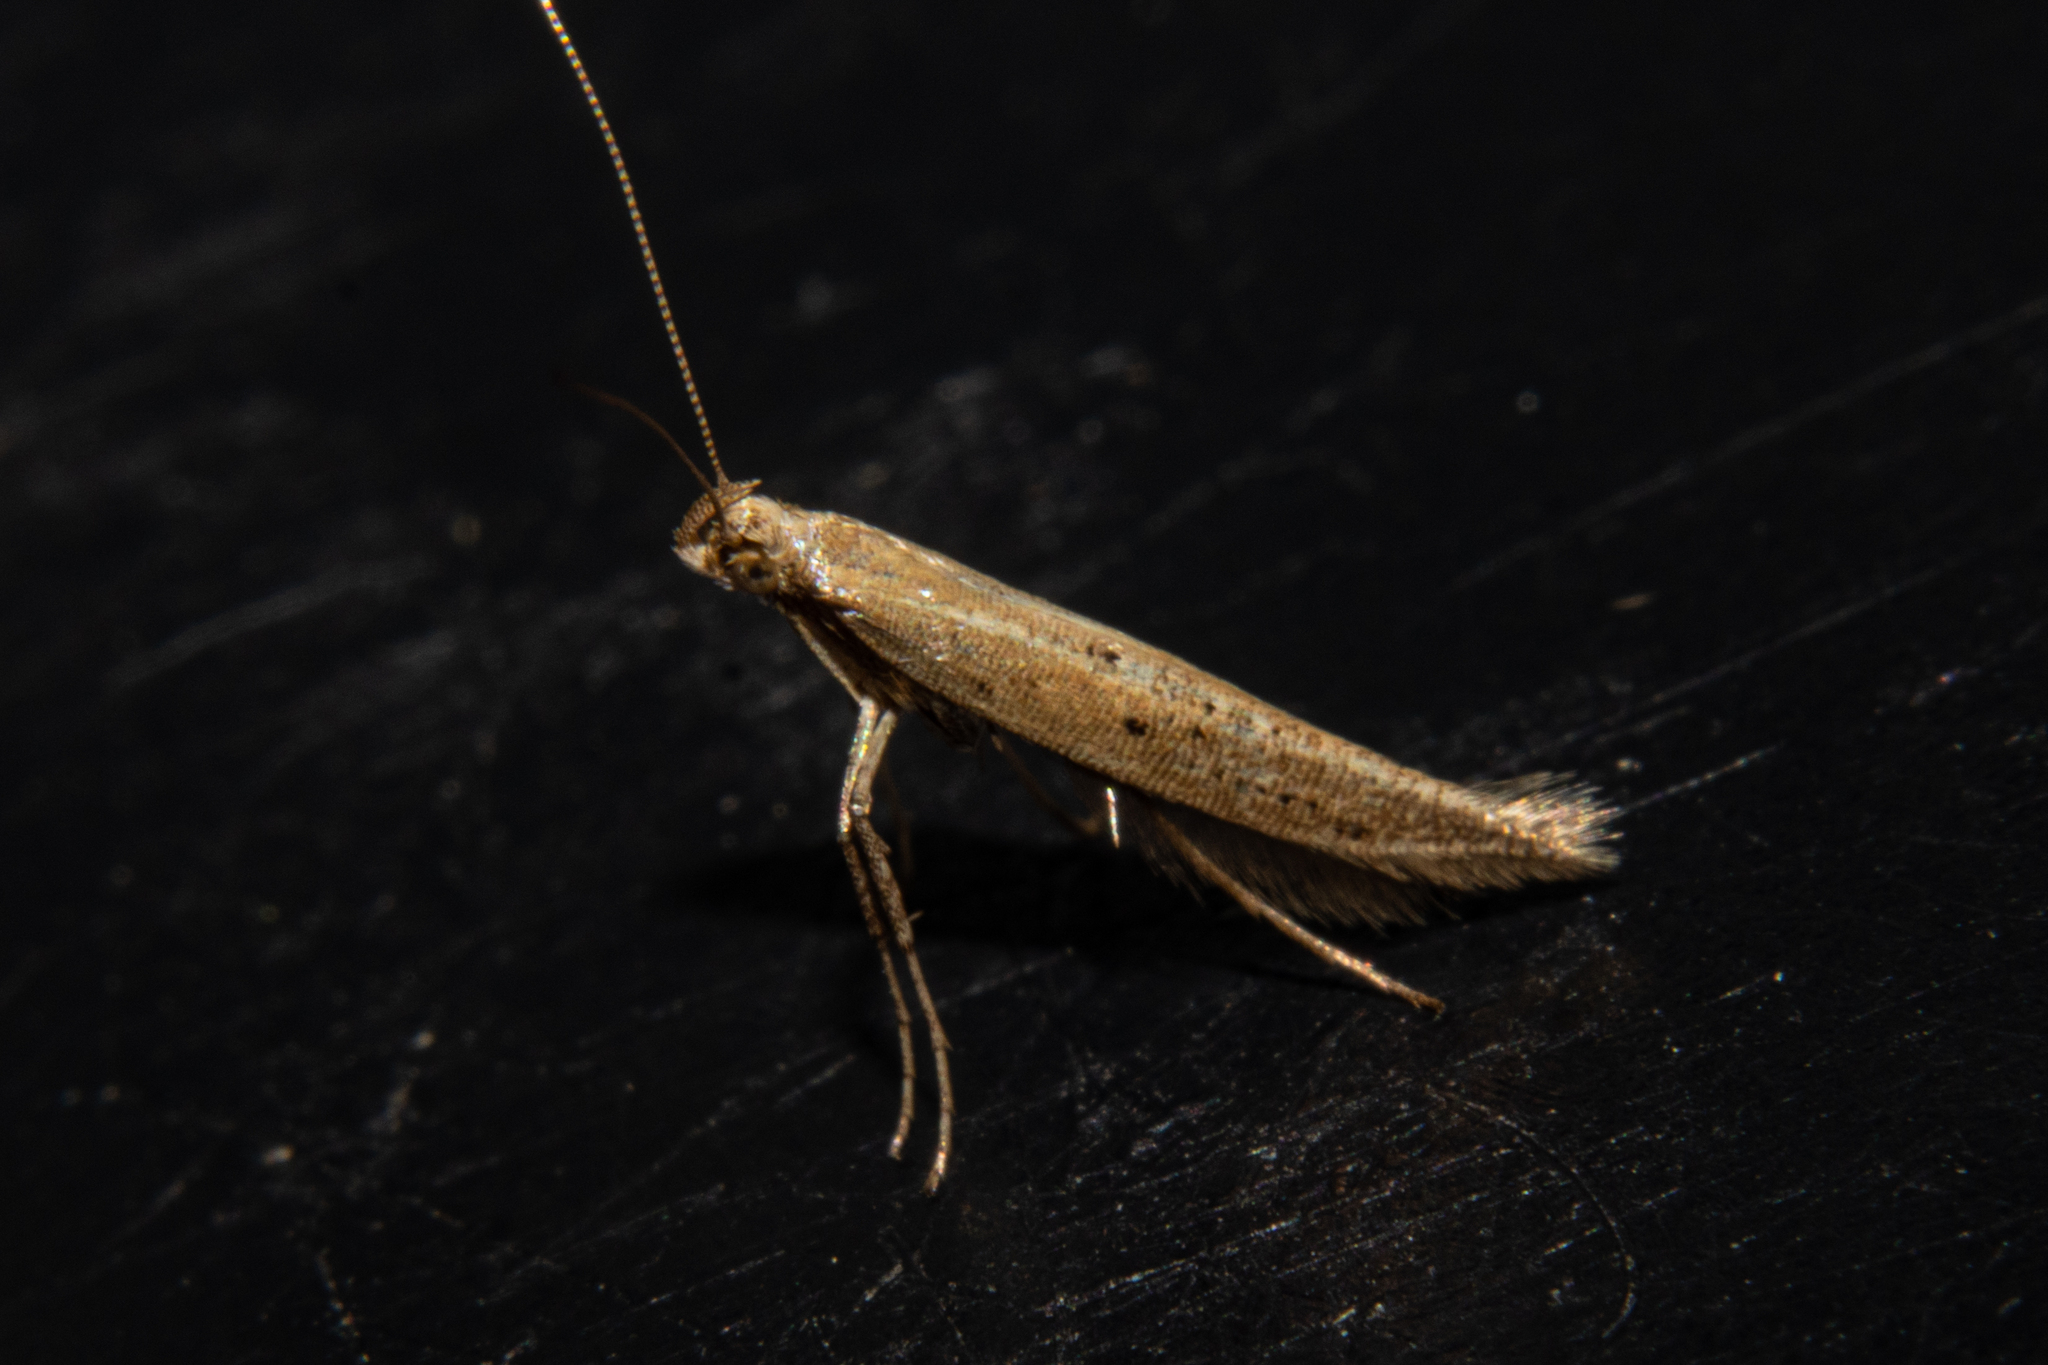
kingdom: Animalia
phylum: Arthropoda
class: Insecta
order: Lepidoptera
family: Gracillariidae
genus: Caloptilia
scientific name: Caloptilia elaeas
